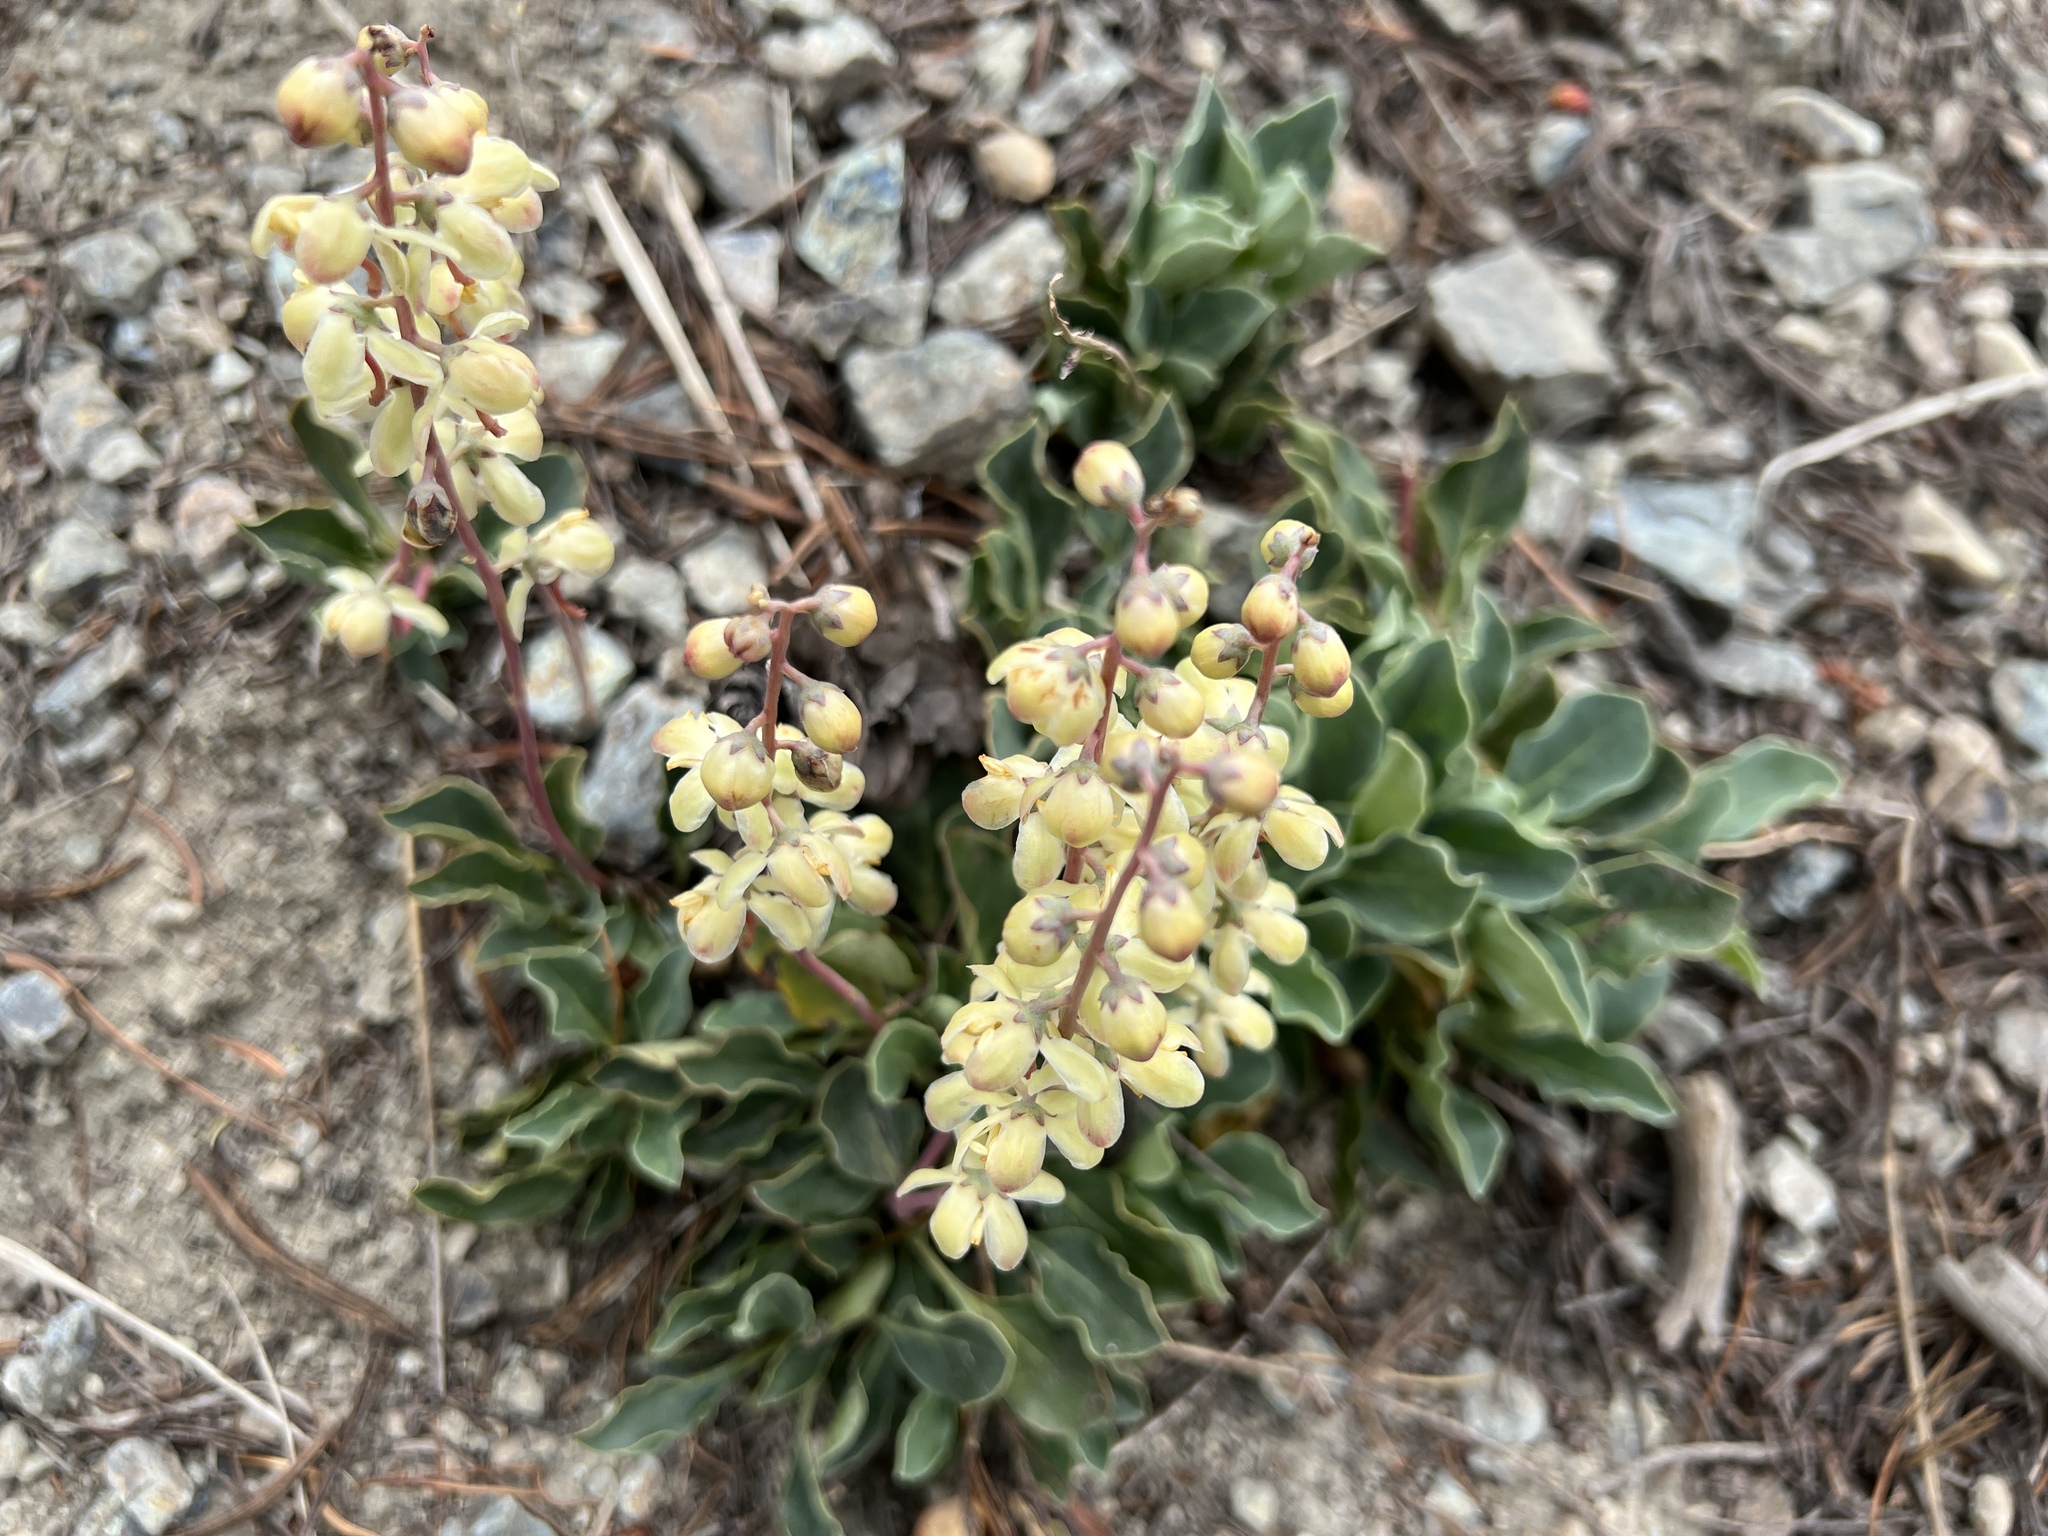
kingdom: Plantae
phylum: Tracheophyta
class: Magnoliopsida
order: Ericales
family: Ericaceae
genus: Pyrola
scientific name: Pyrola dentata
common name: Tooth-leaved wintergreen
